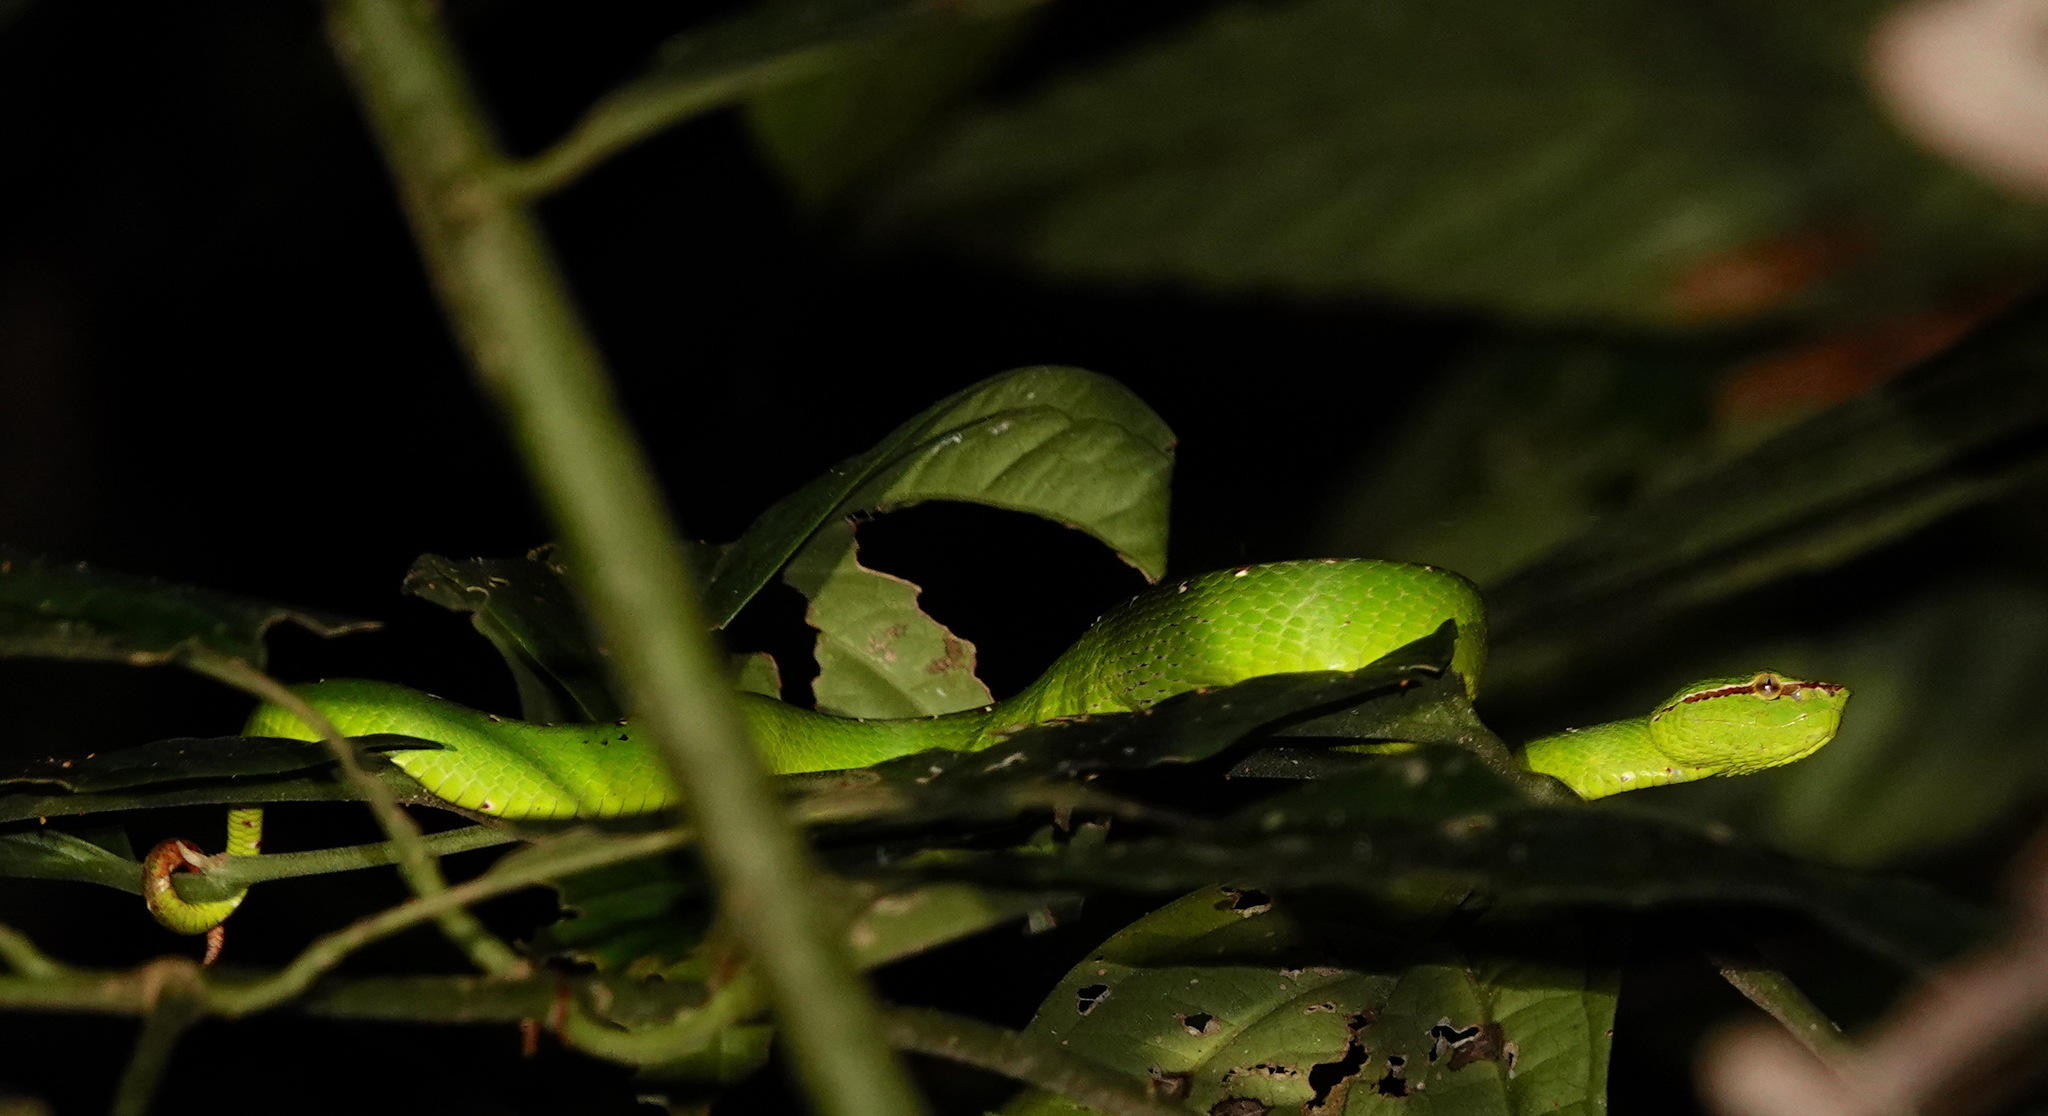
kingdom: Animalia
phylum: Chordata
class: Squamata
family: Viperidae
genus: Tropidolaemus
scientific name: Tropidolaemus subannulatus
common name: North philippine temple pitviper
